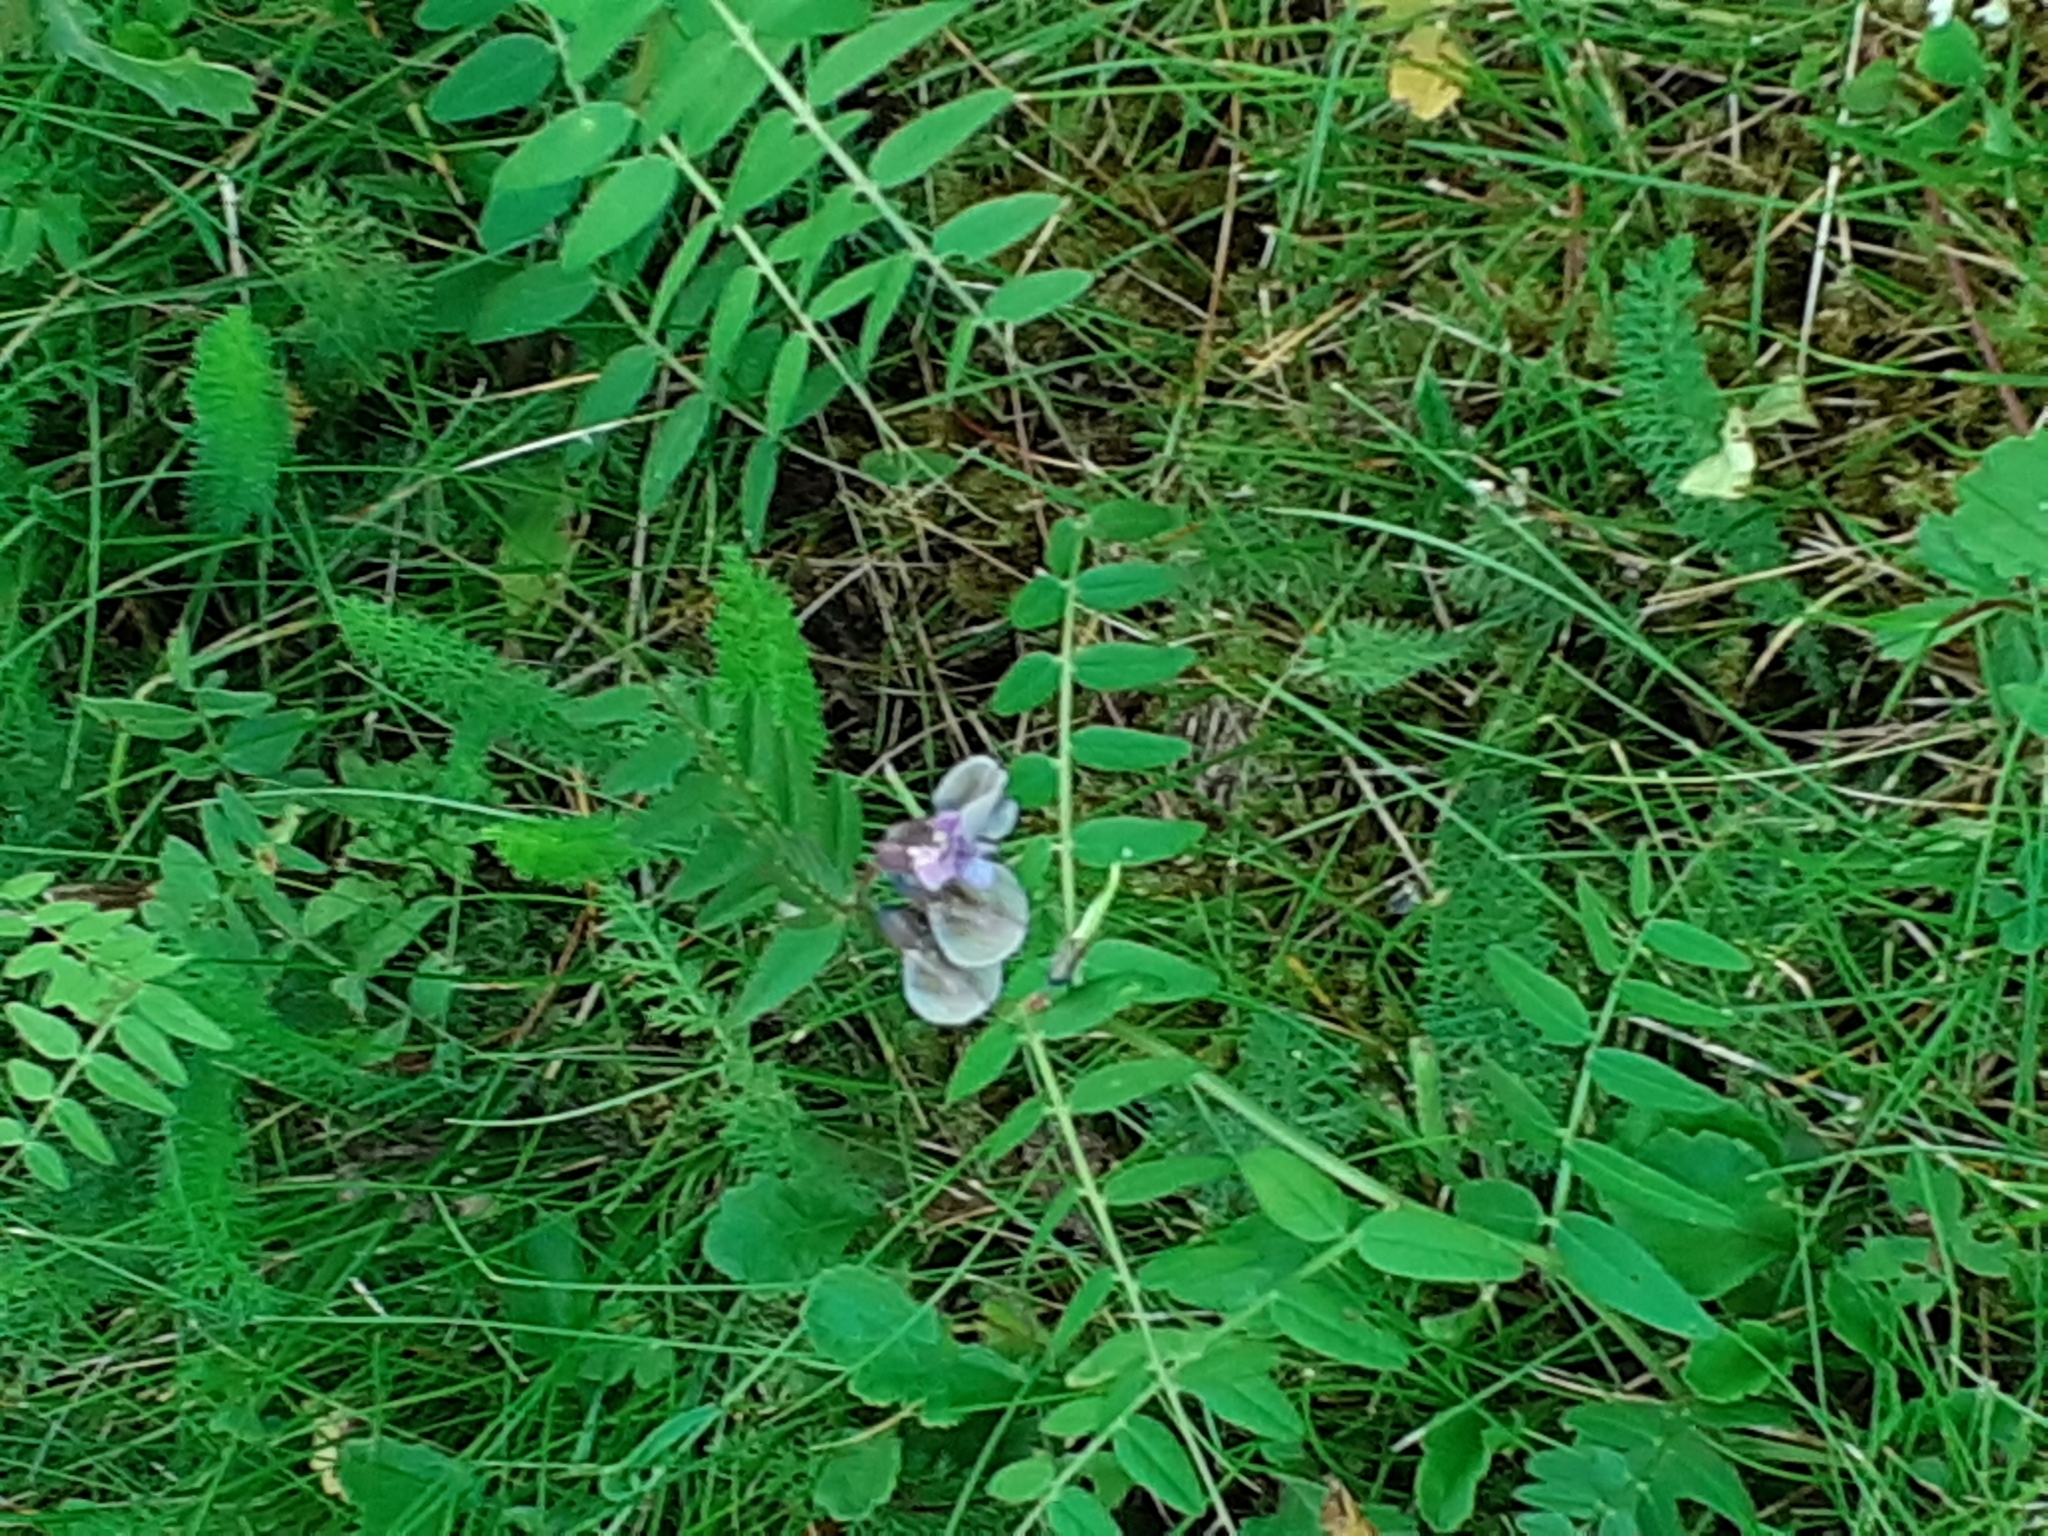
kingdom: Plantae
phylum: Tracheophyta
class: Magnoliopsida
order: Fabales
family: Fabaceae
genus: Vicia
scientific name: Vicia sepium
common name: Bush vetch
